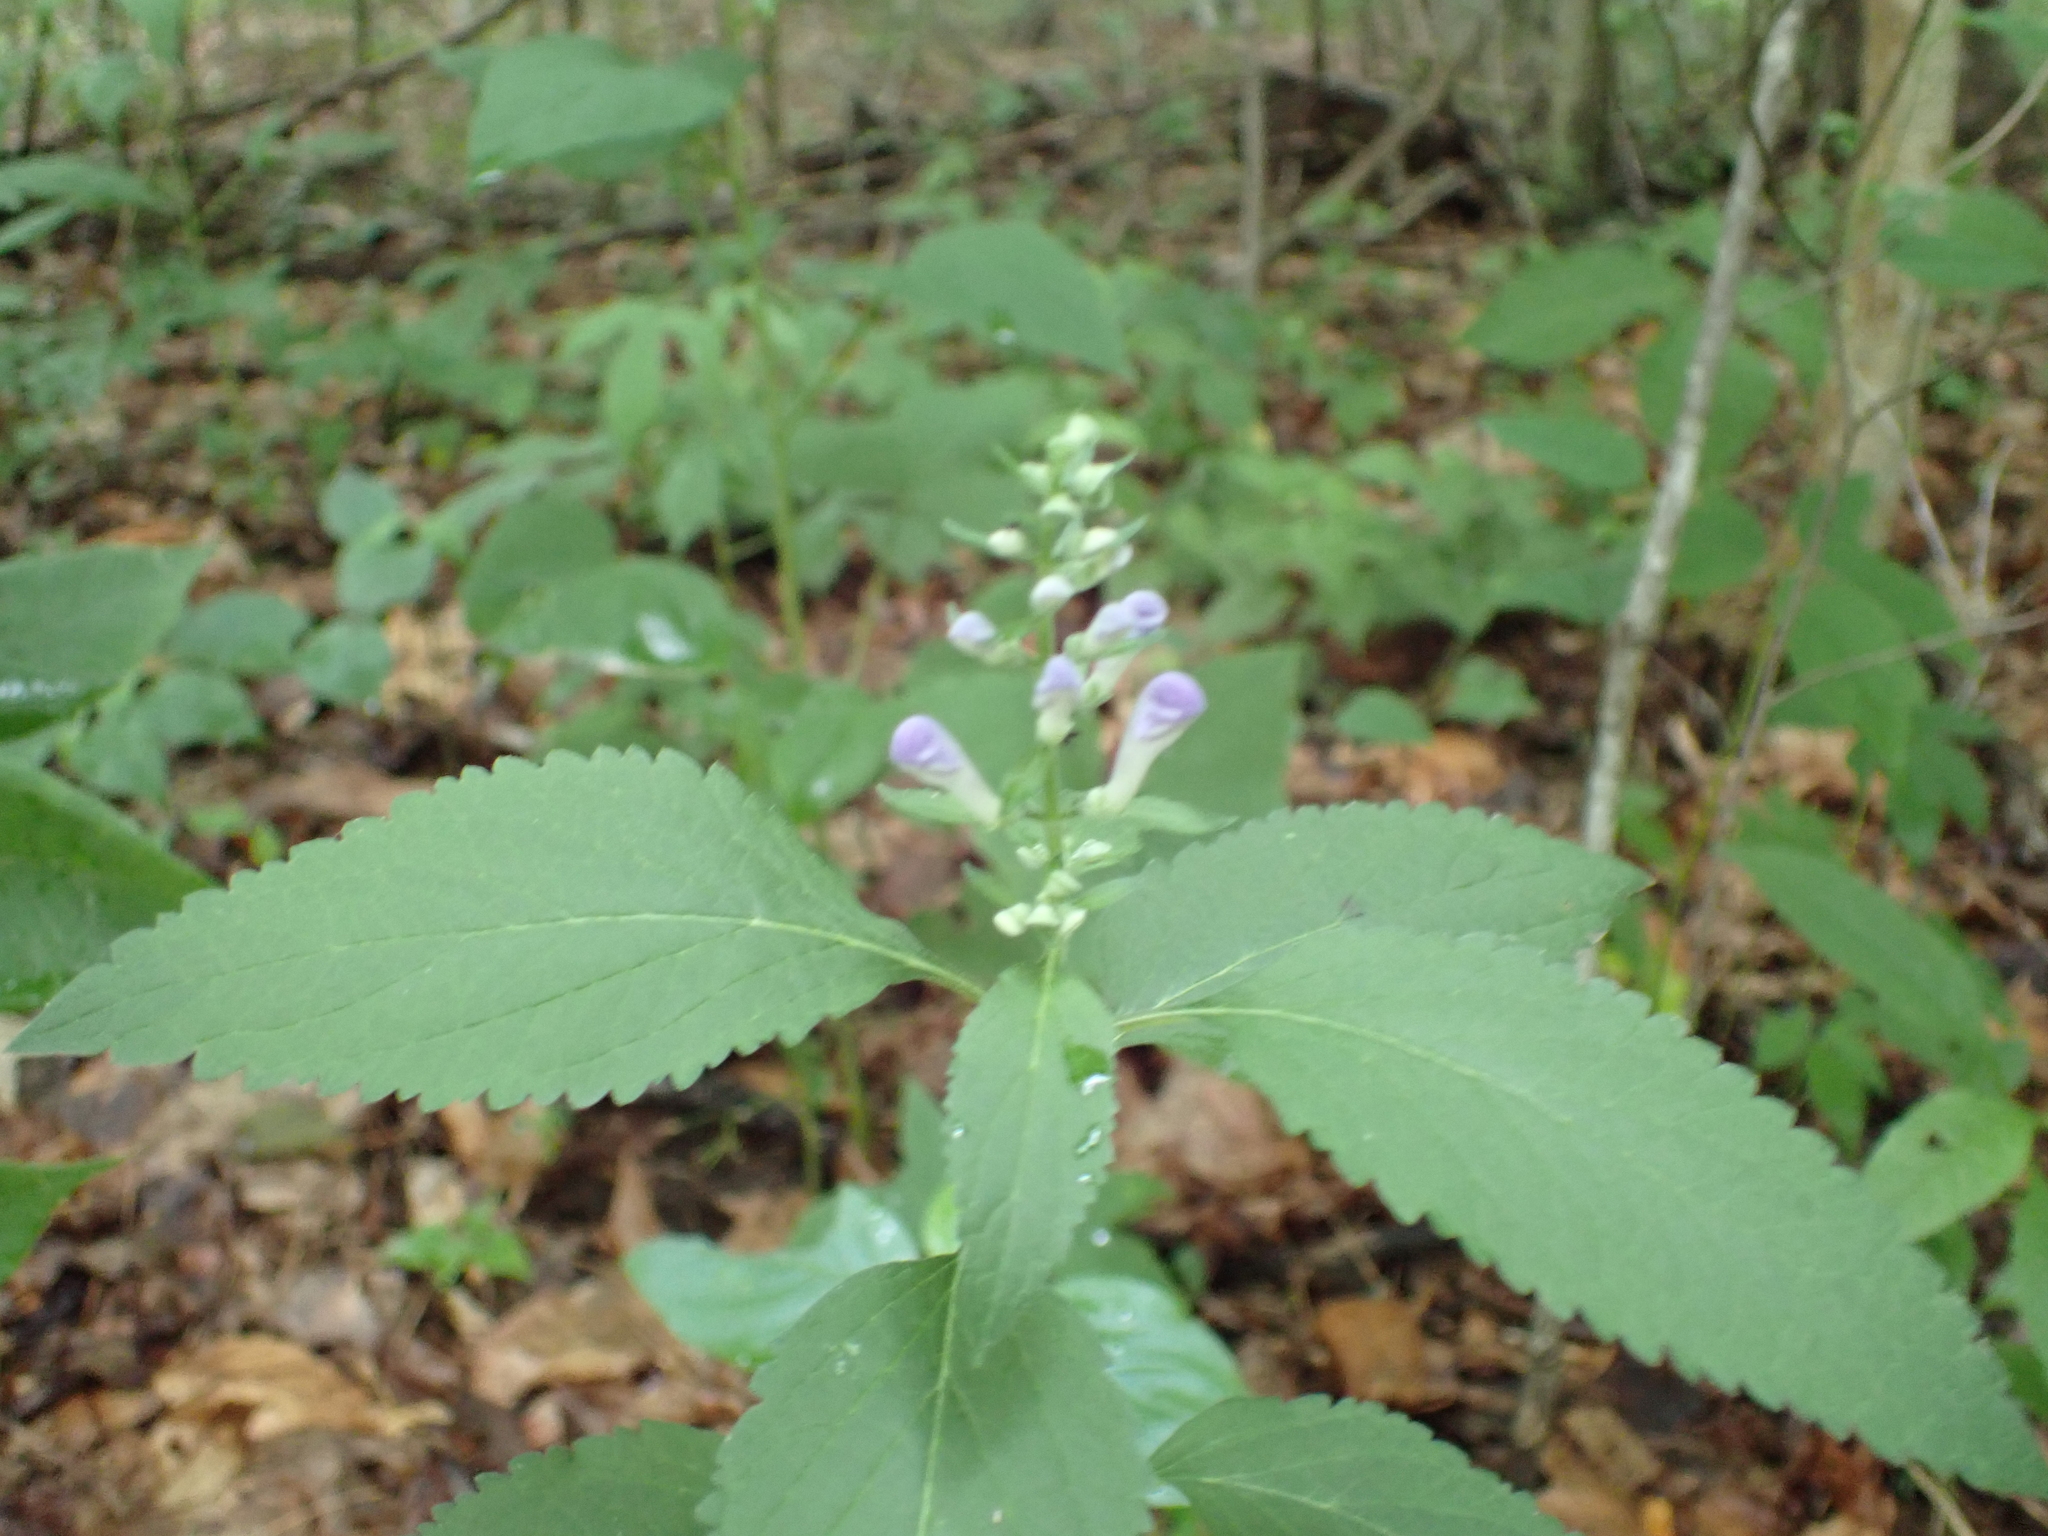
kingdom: Plantae
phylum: Tracheophyta
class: Magnoliopsida
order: Lamiales
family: Lamiaceae
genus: Scutellaria
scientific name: Scutellaria incana
